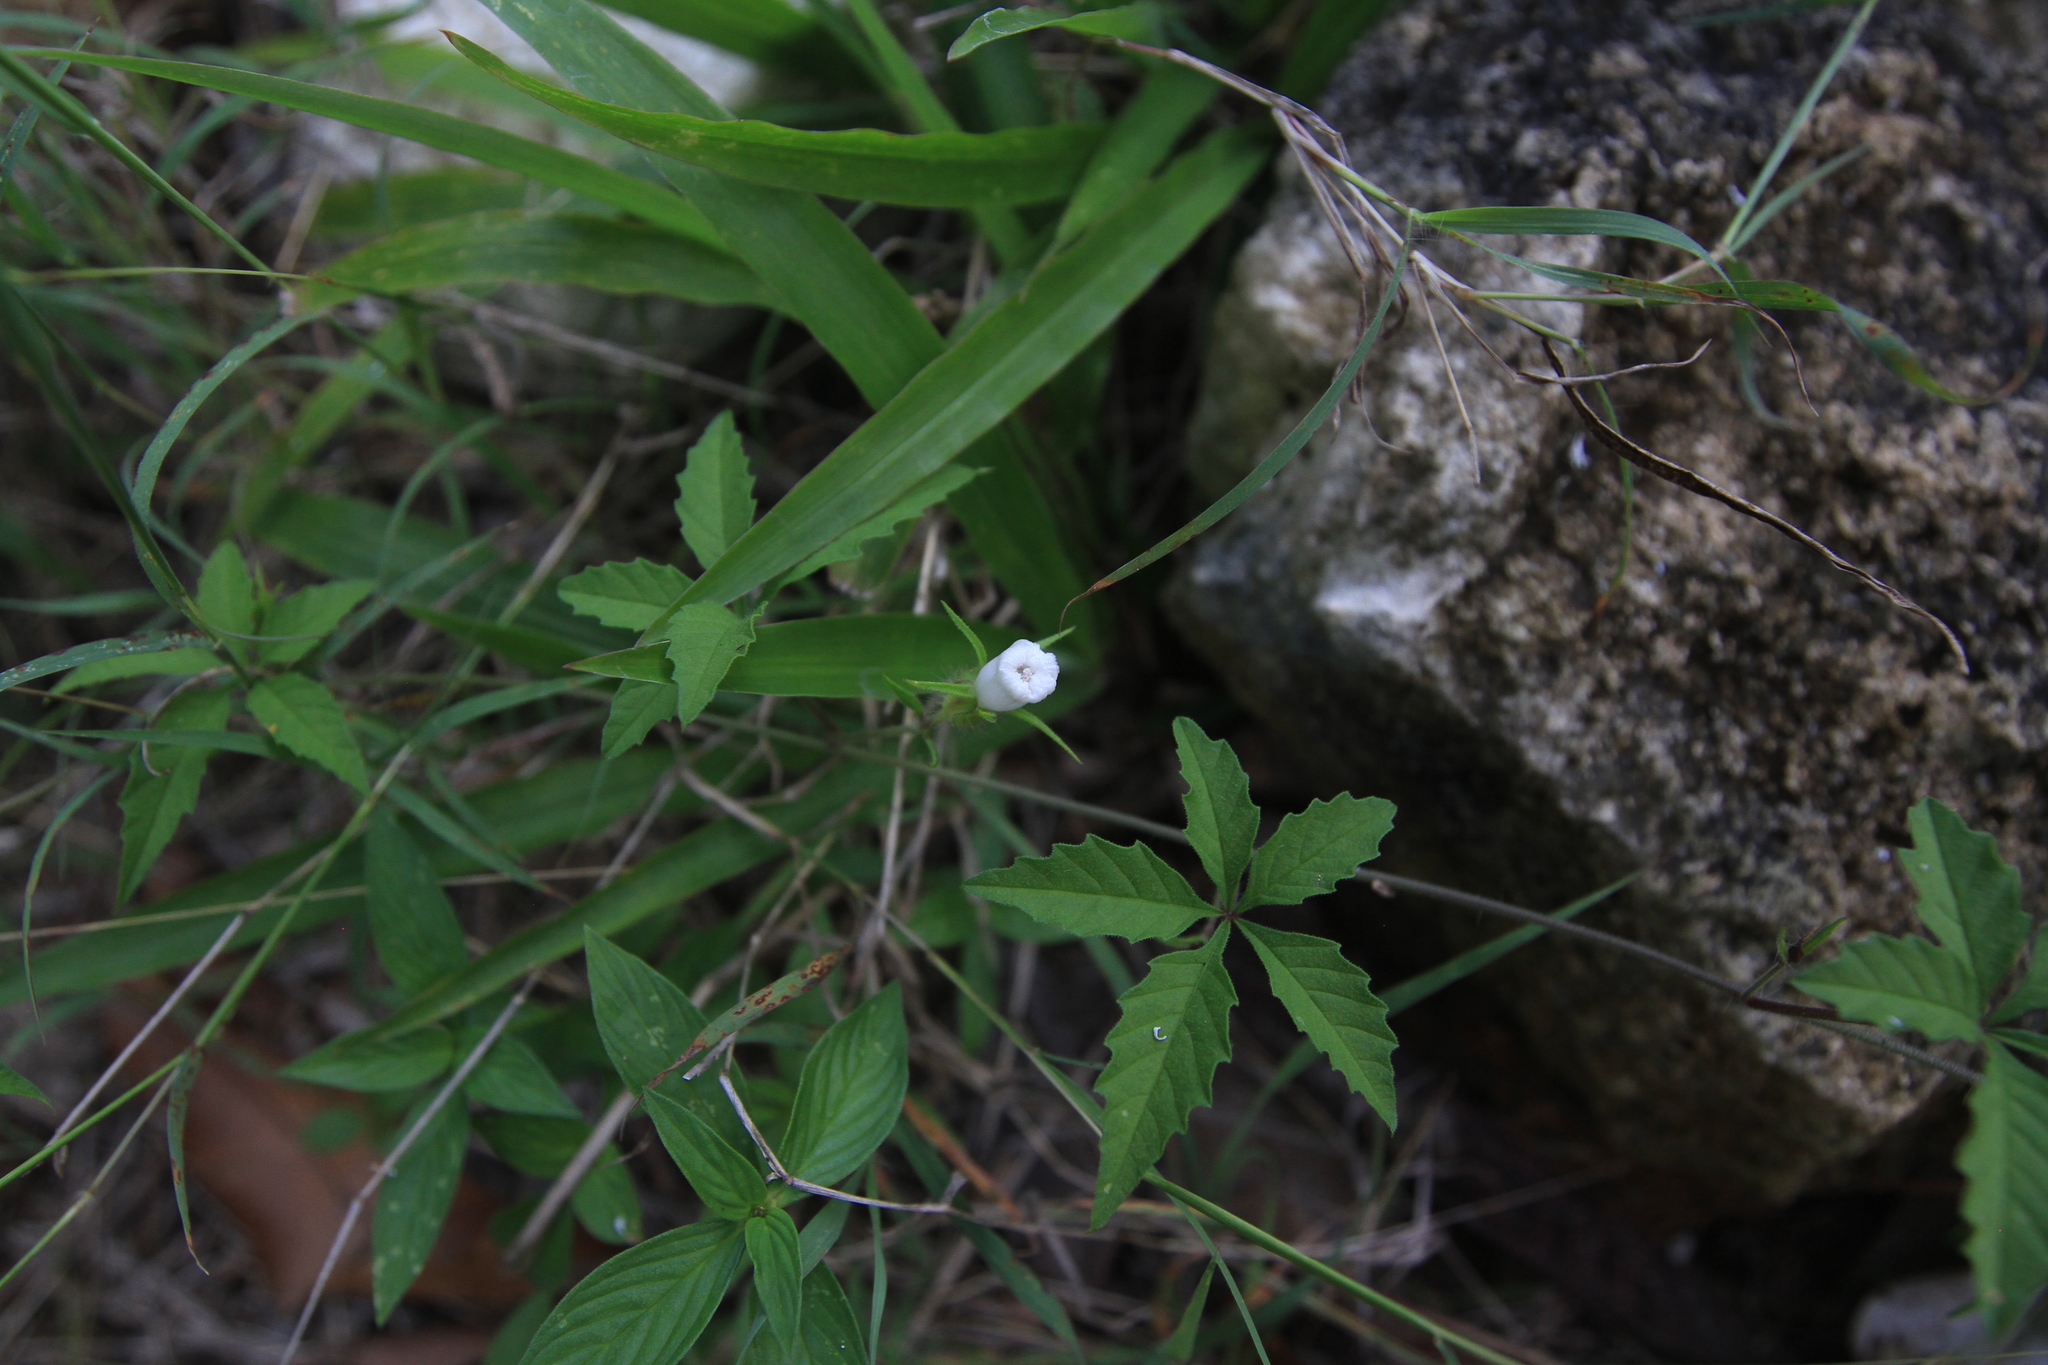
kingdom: Plantae
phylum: Tracheophyta
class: Magnoliopsida
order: Solanales
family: Convolvulaceae
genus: Distimake
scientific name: Distimake cissoides
